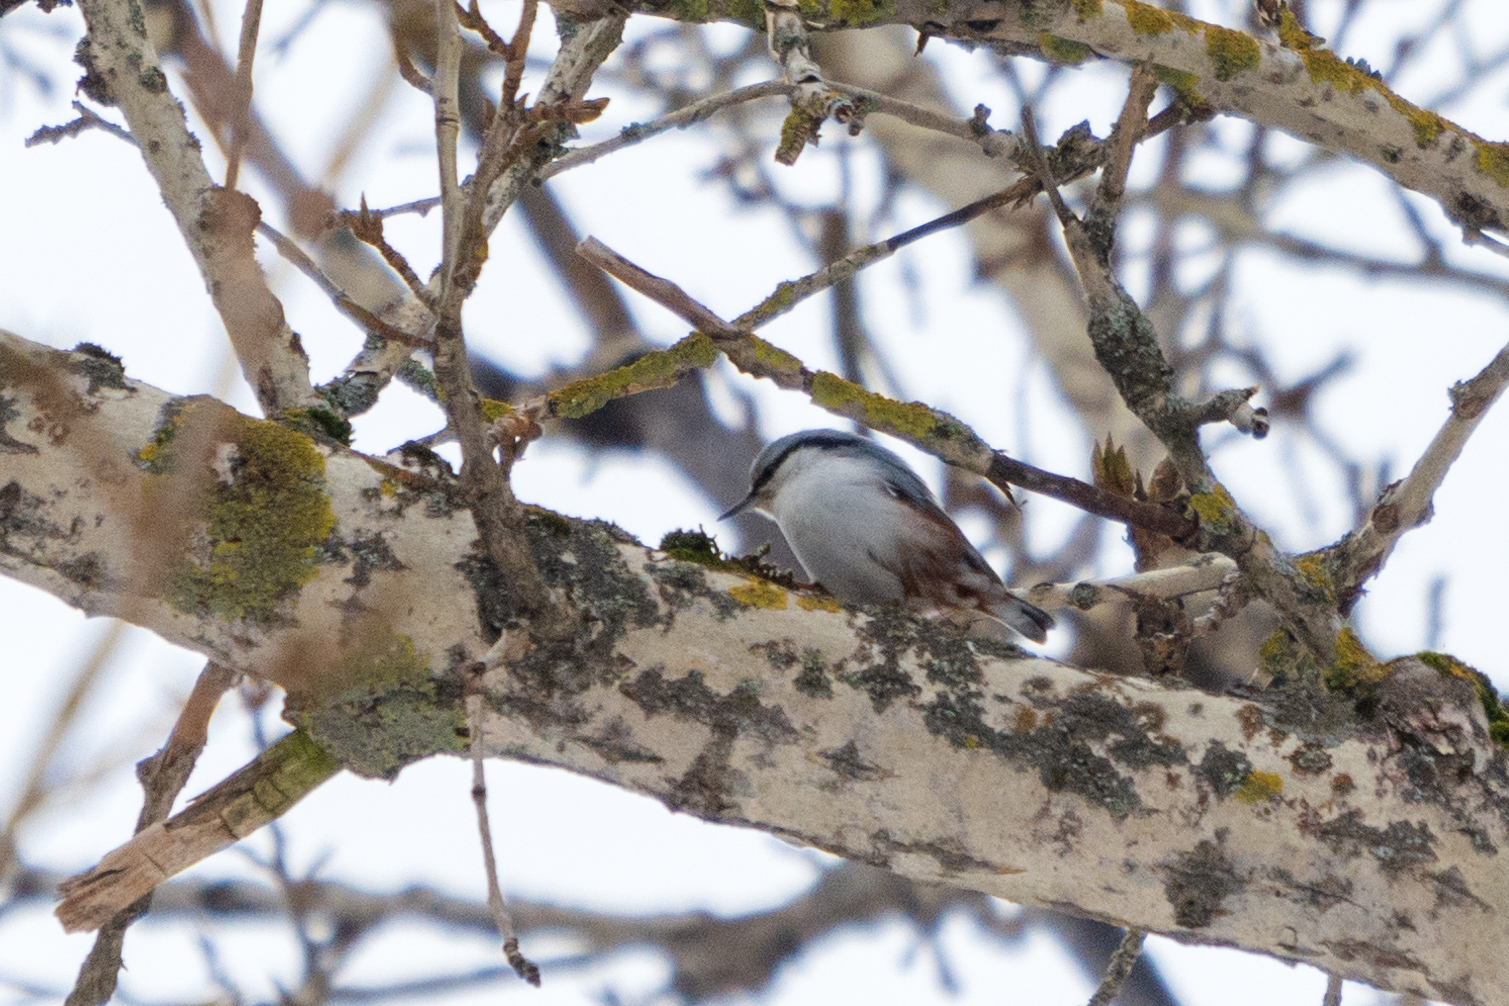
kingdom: Animalia
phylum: Chordata
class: Aves
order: Passeriformes
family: Sittidae
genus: Sitta
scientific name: Sitta europaea
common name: Eurasian nuthatch
